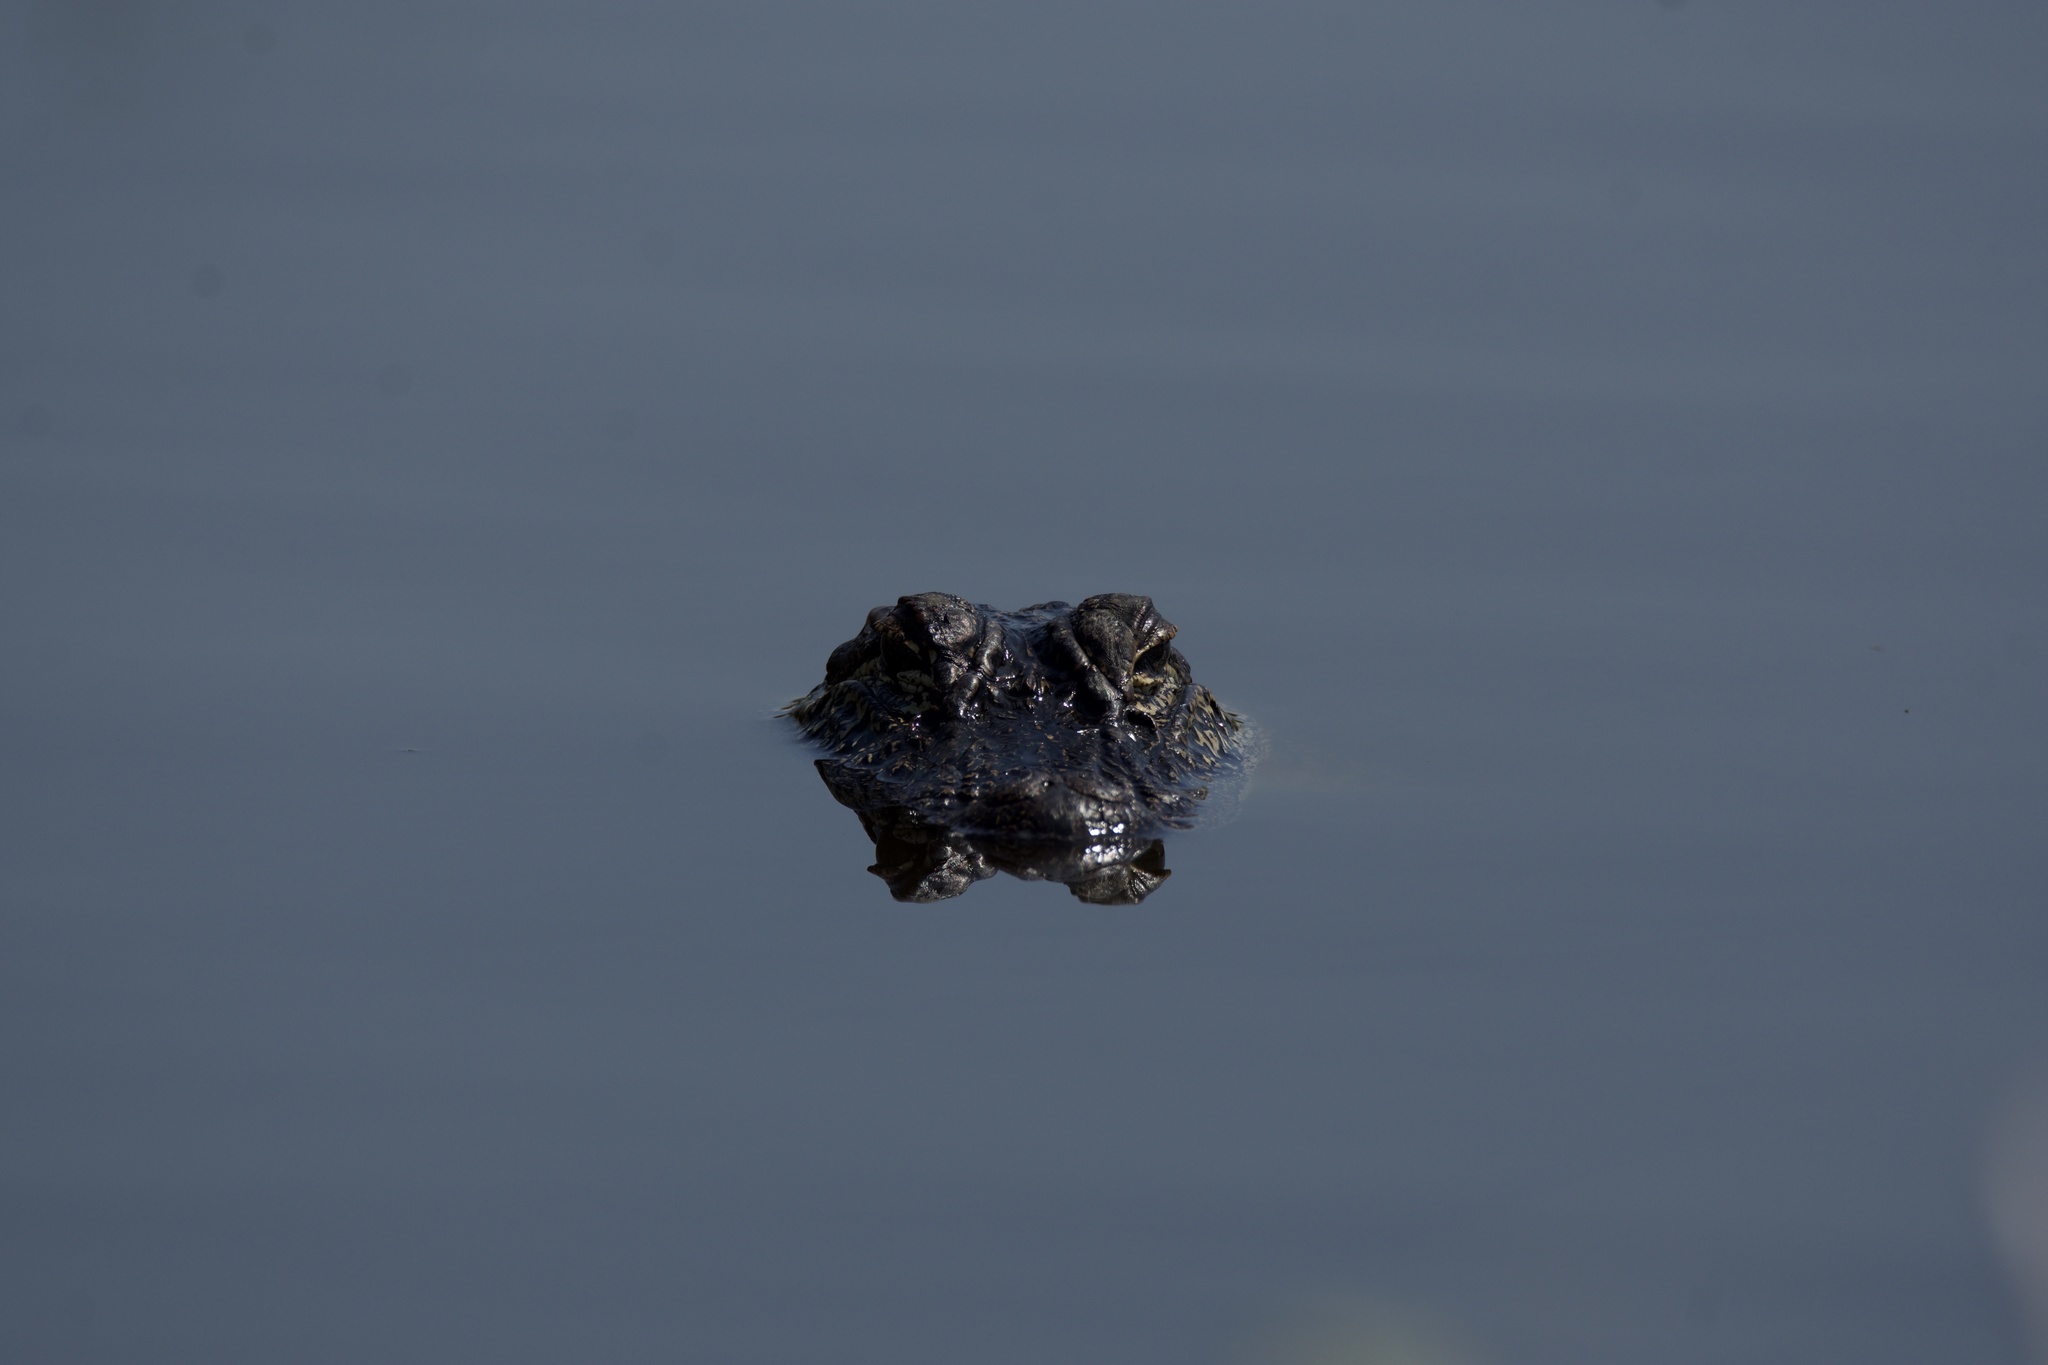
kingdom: Animalia
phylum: Chordata
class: Crocodylia
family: Alligatoridae
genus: Alligator
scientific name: Alligator mississippiensis
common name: American alligator
